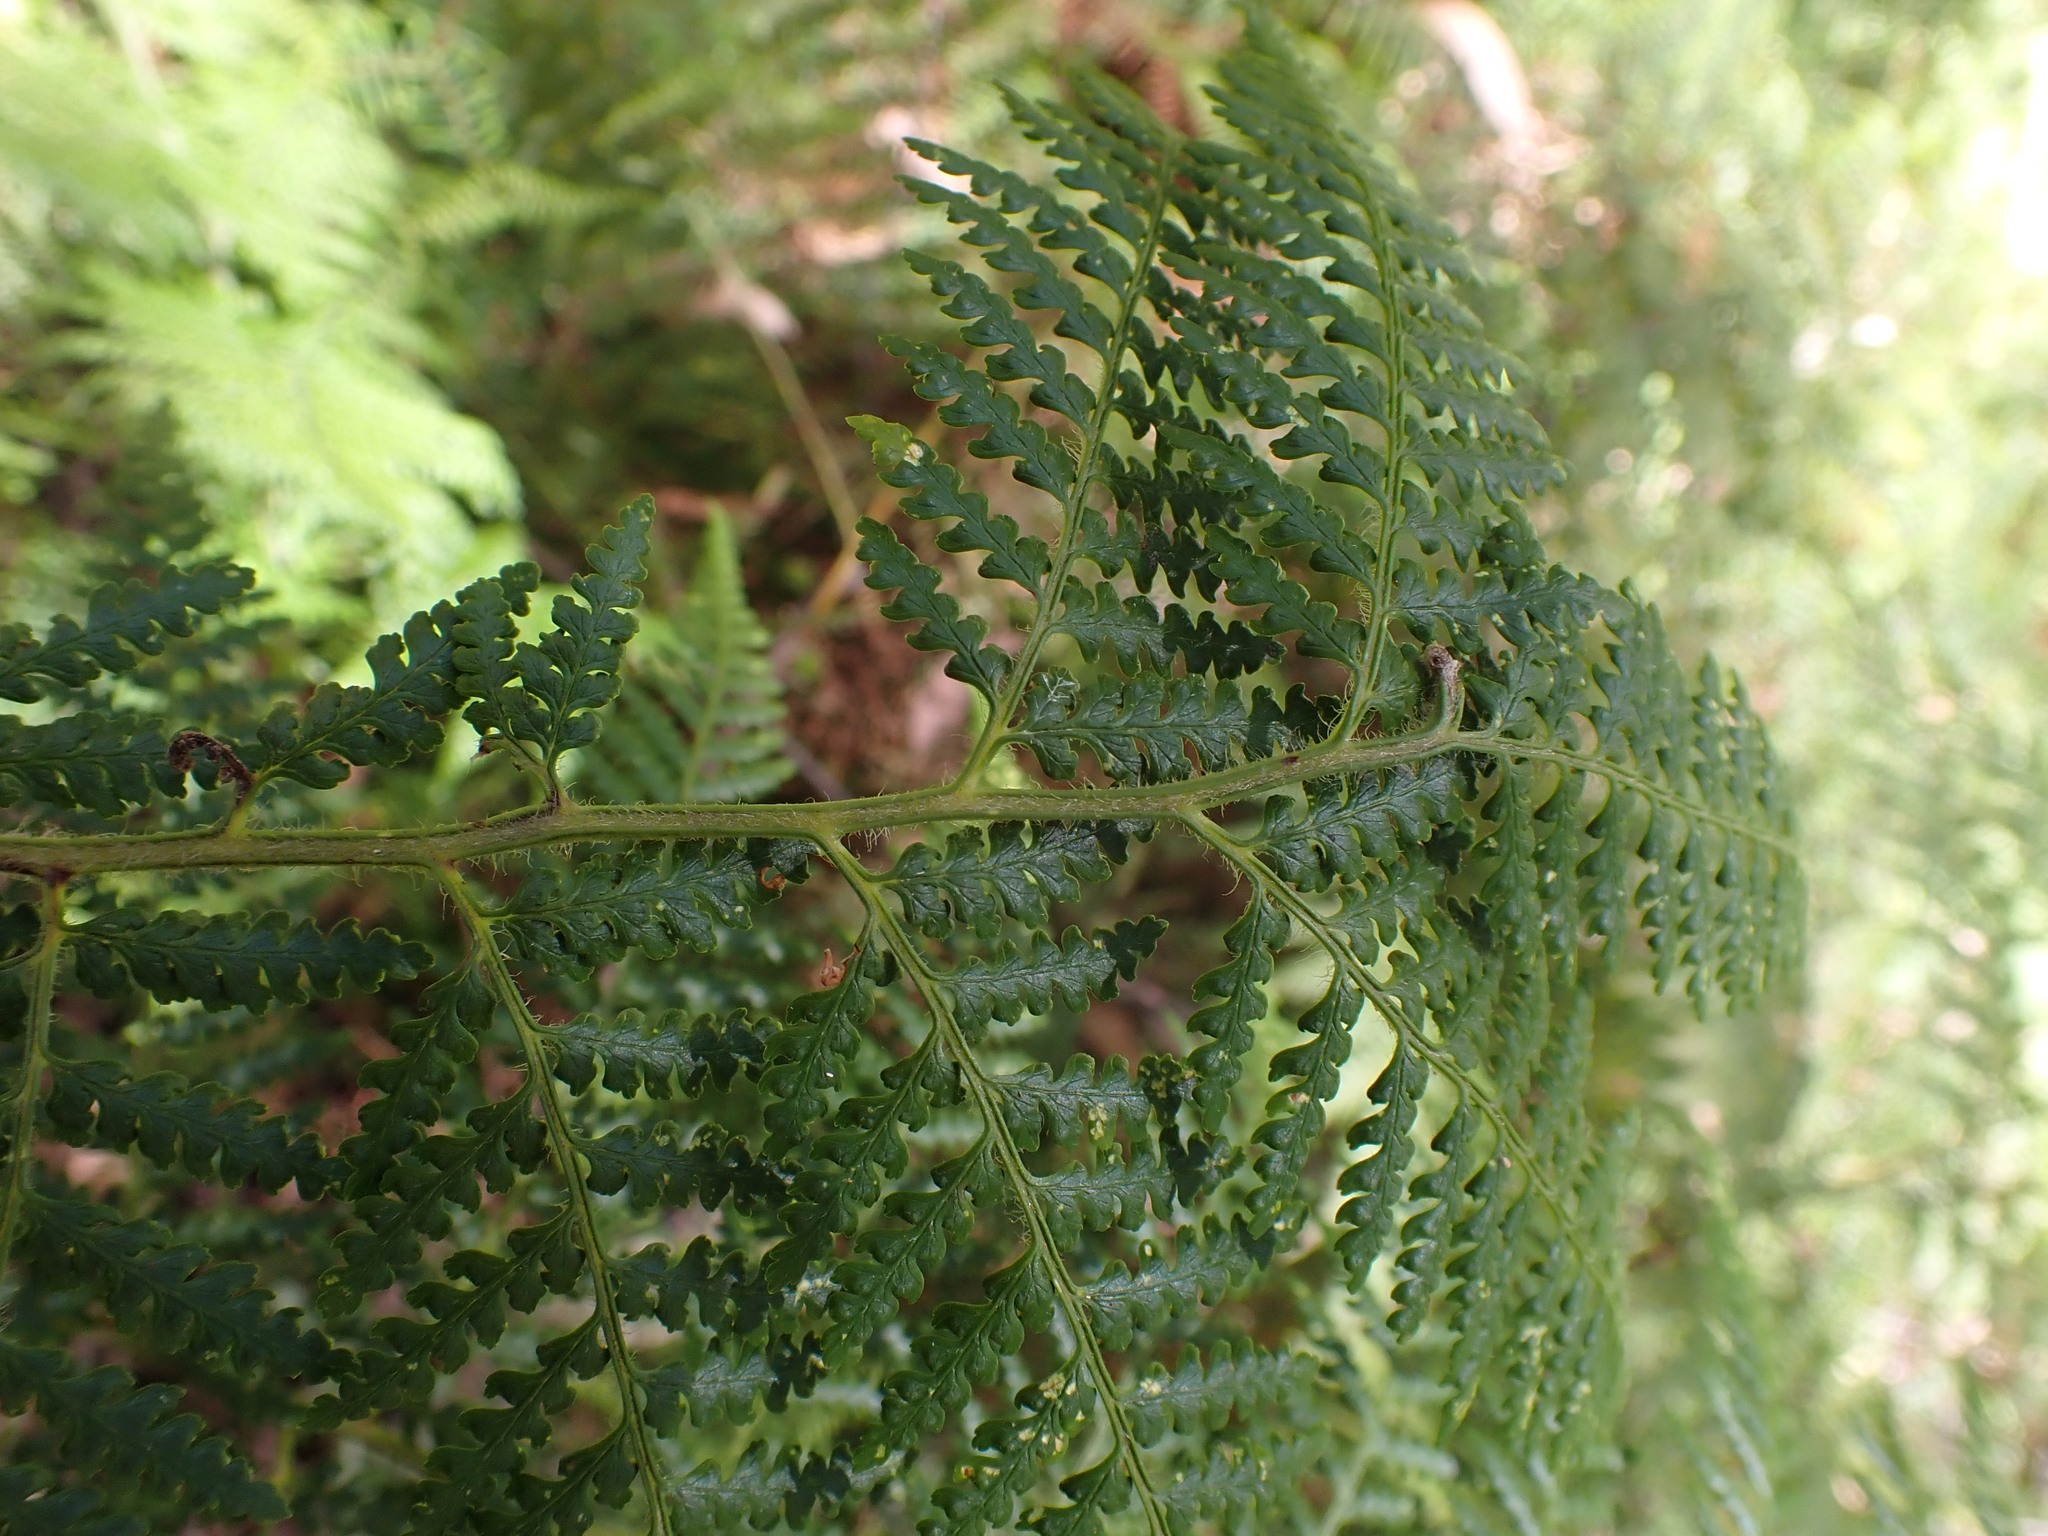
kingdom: Plantae
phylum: Tracheophyta
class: Polypodiopsida
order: Cyatheales
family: Dicksoniaceae
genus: Calochlaena
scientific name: Calochlaena dubia
